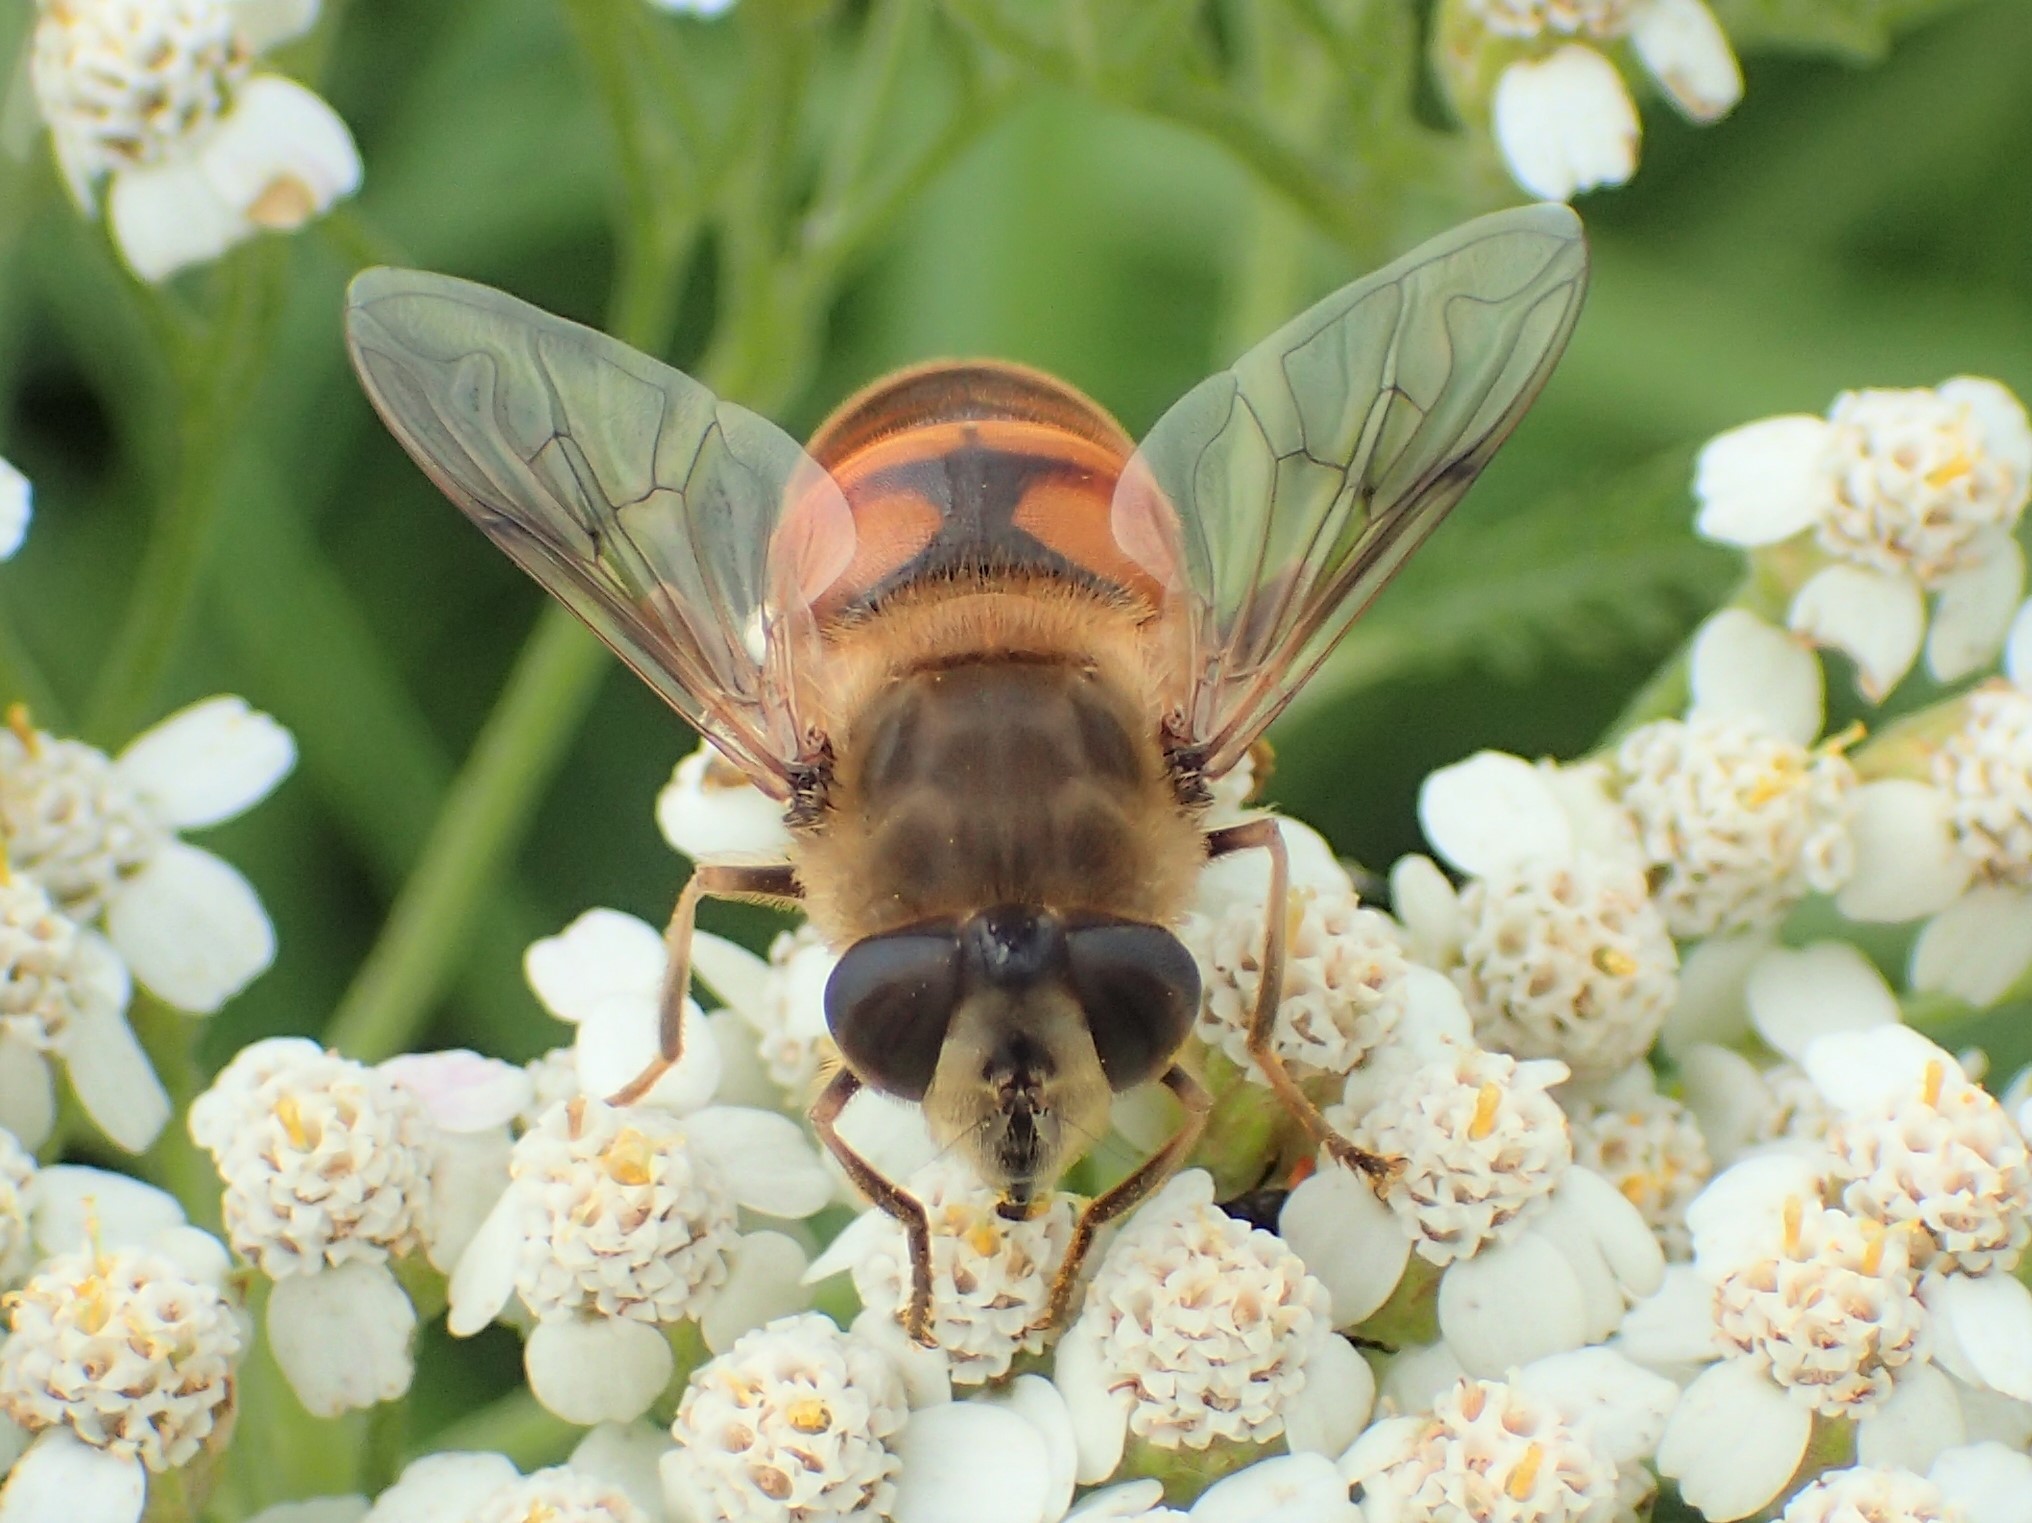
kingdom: Animalia
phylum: Arthropoda
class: Insecta
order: Diptera
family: Syrphidae
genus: Eristalis
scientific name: Eristalis tenax
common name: Drone fly
